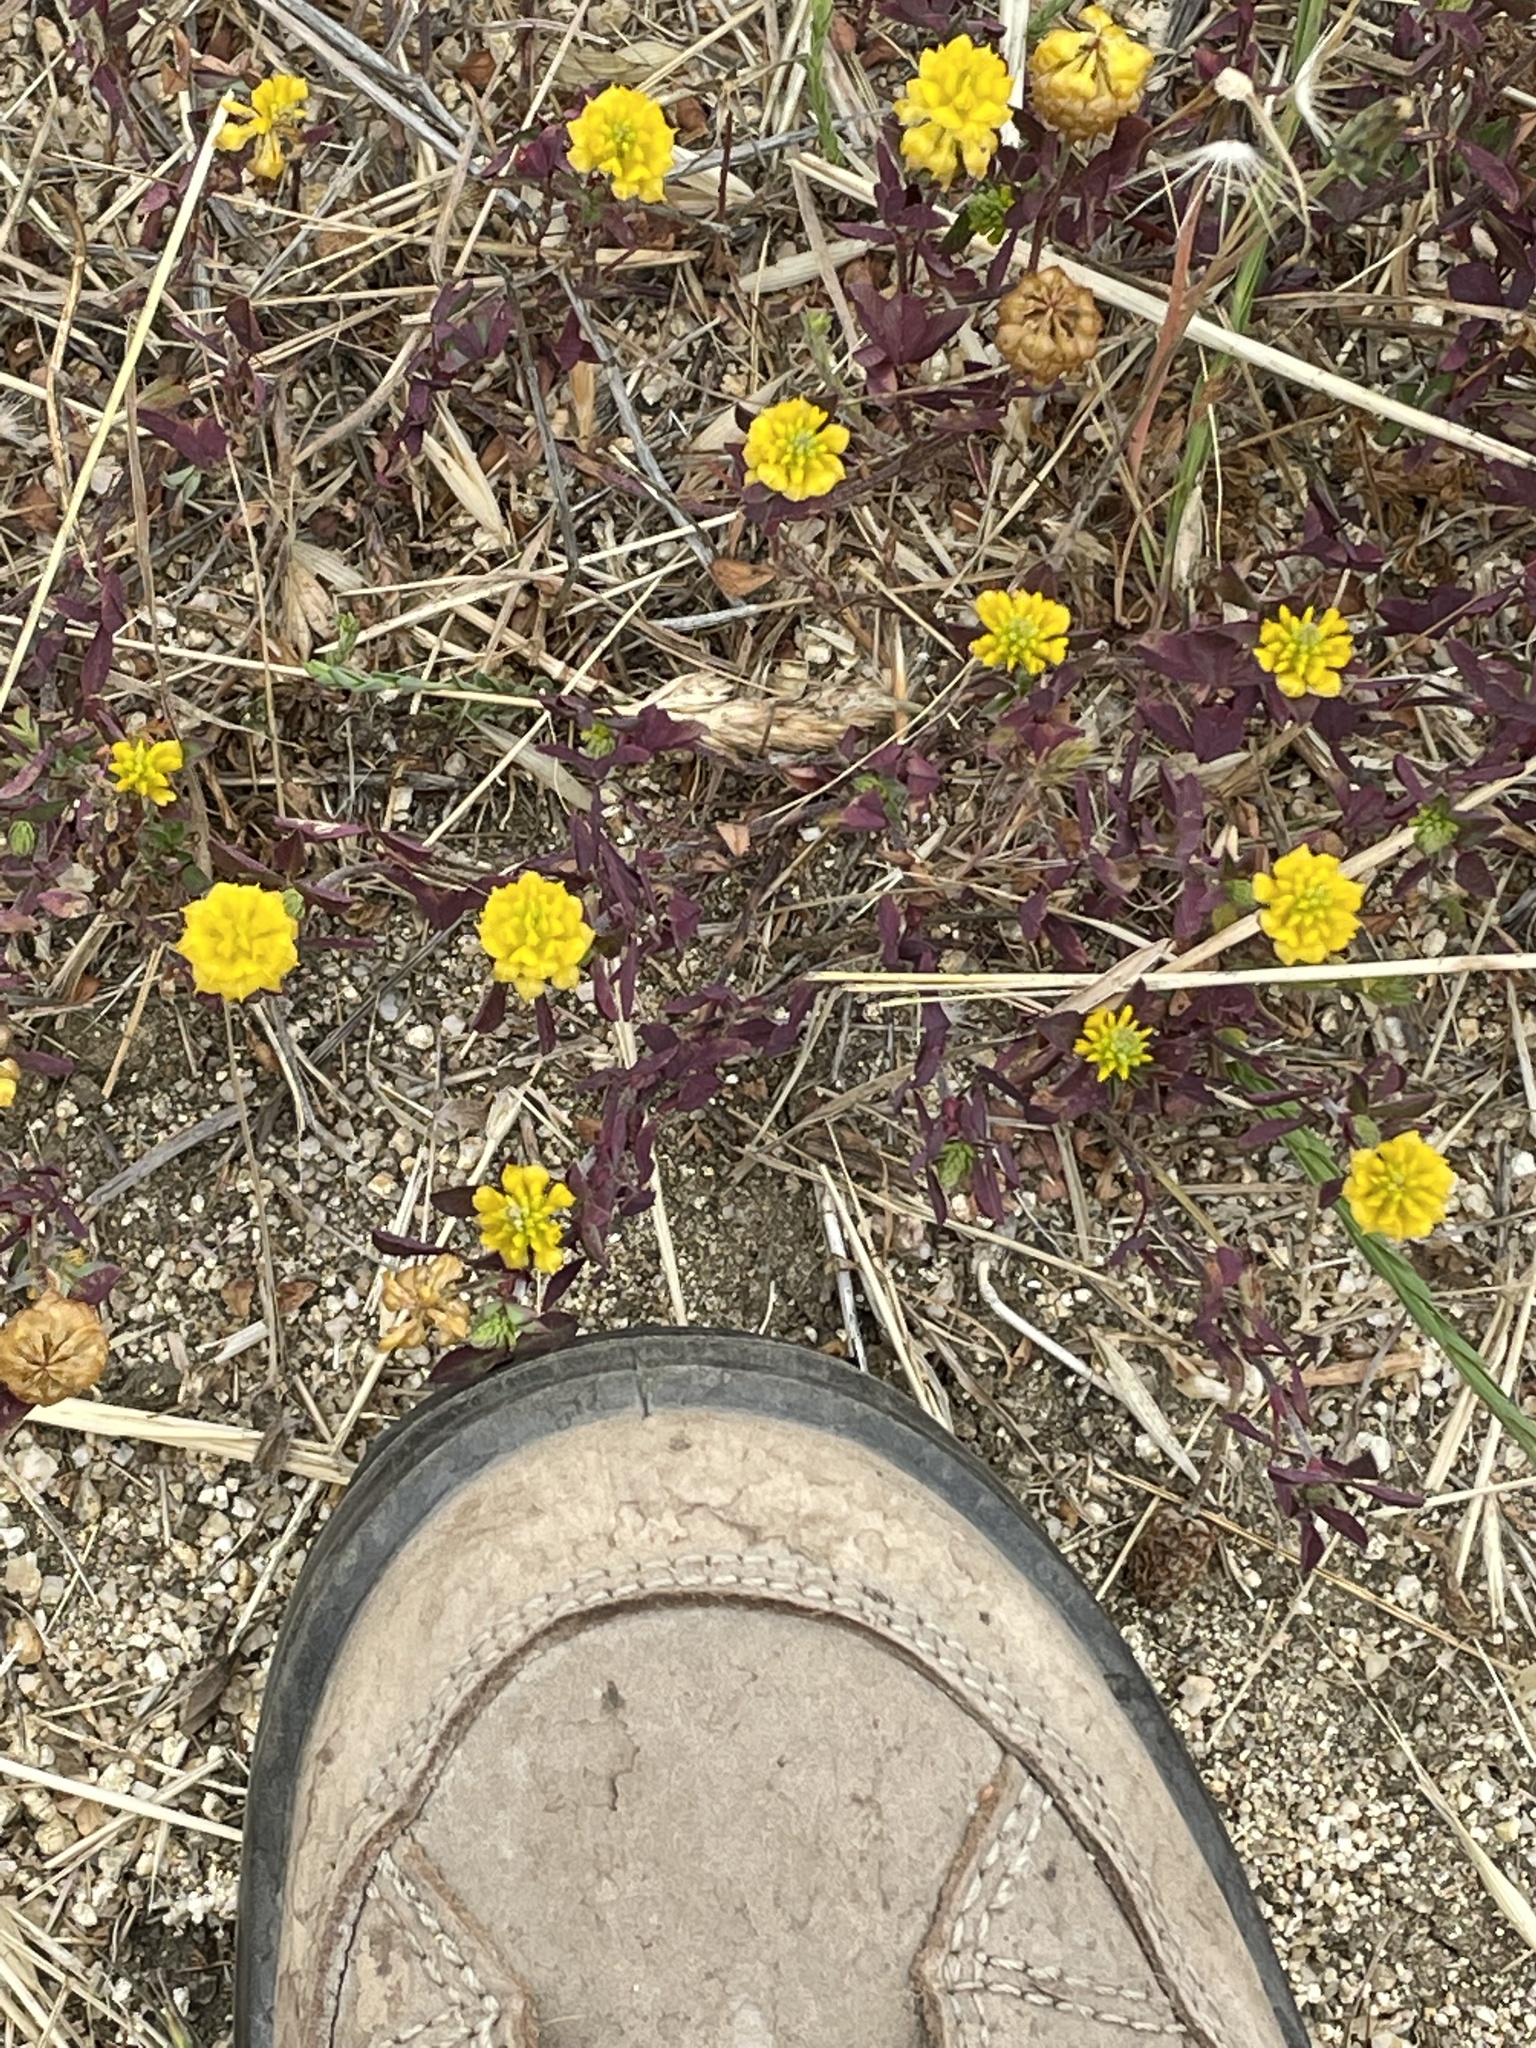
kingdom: Plantae
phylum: Tracheophyta
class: Magnoliopsida
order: Fabales
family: Fabaceae
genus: Trifolium
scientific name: Trifolium campestre
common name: Field clover
